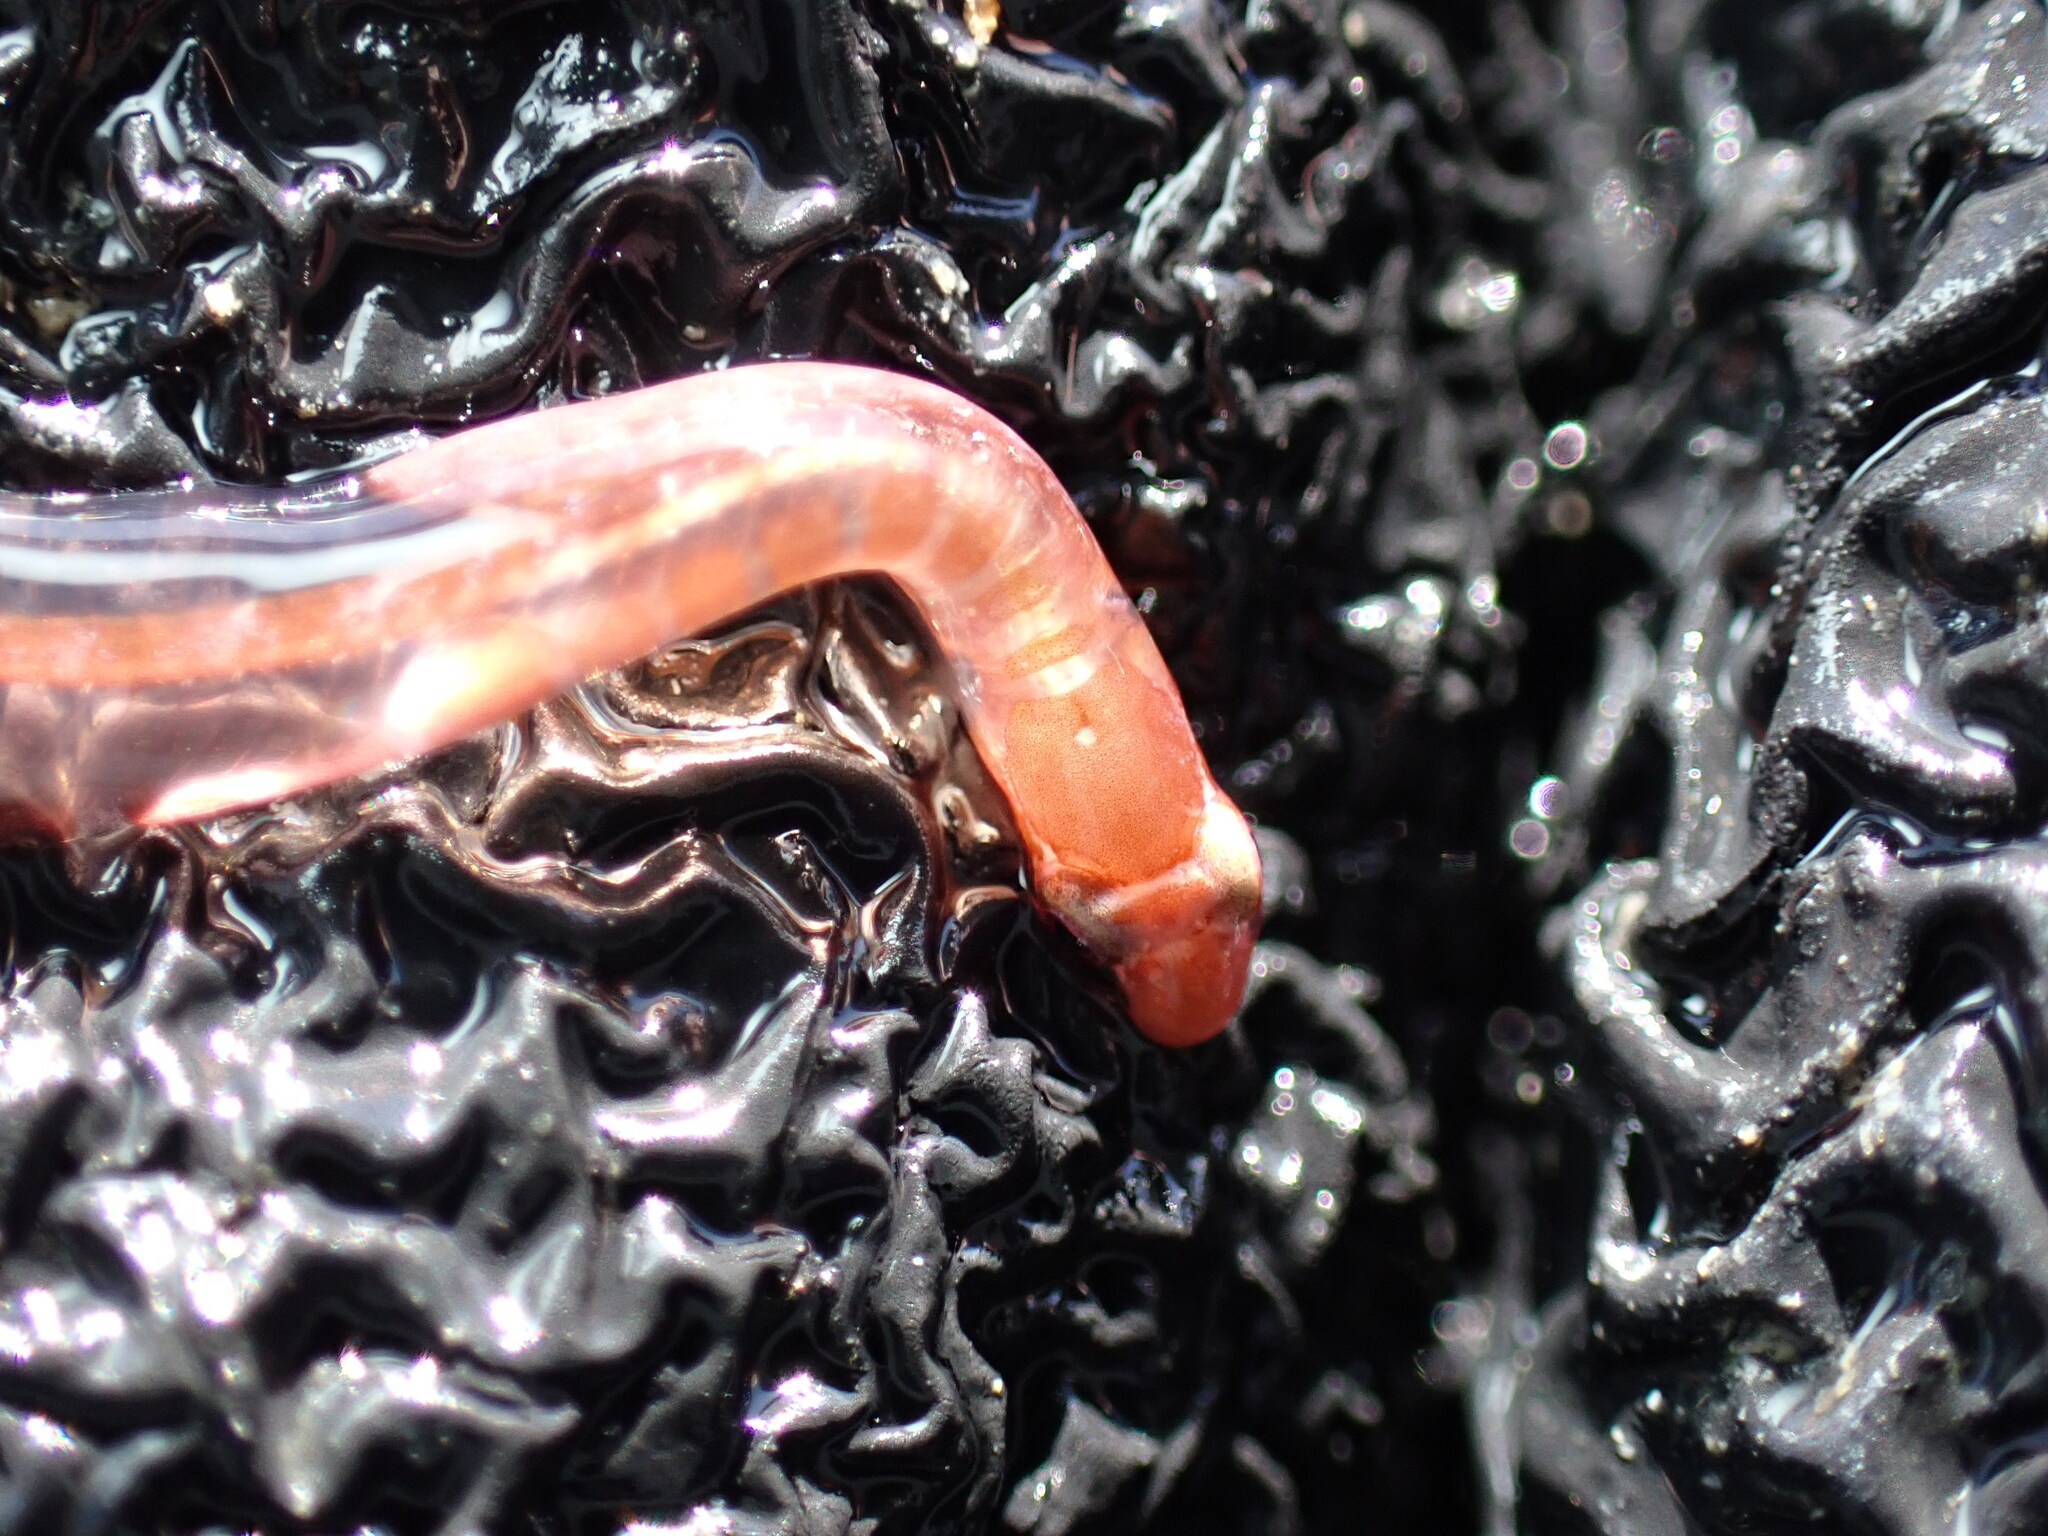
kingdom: Animalia
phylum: Chordata
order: Gobiesociformes
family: Gobiesocidae
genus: Alabes
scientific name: Alabes parvula
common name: Pygmy shore eel
